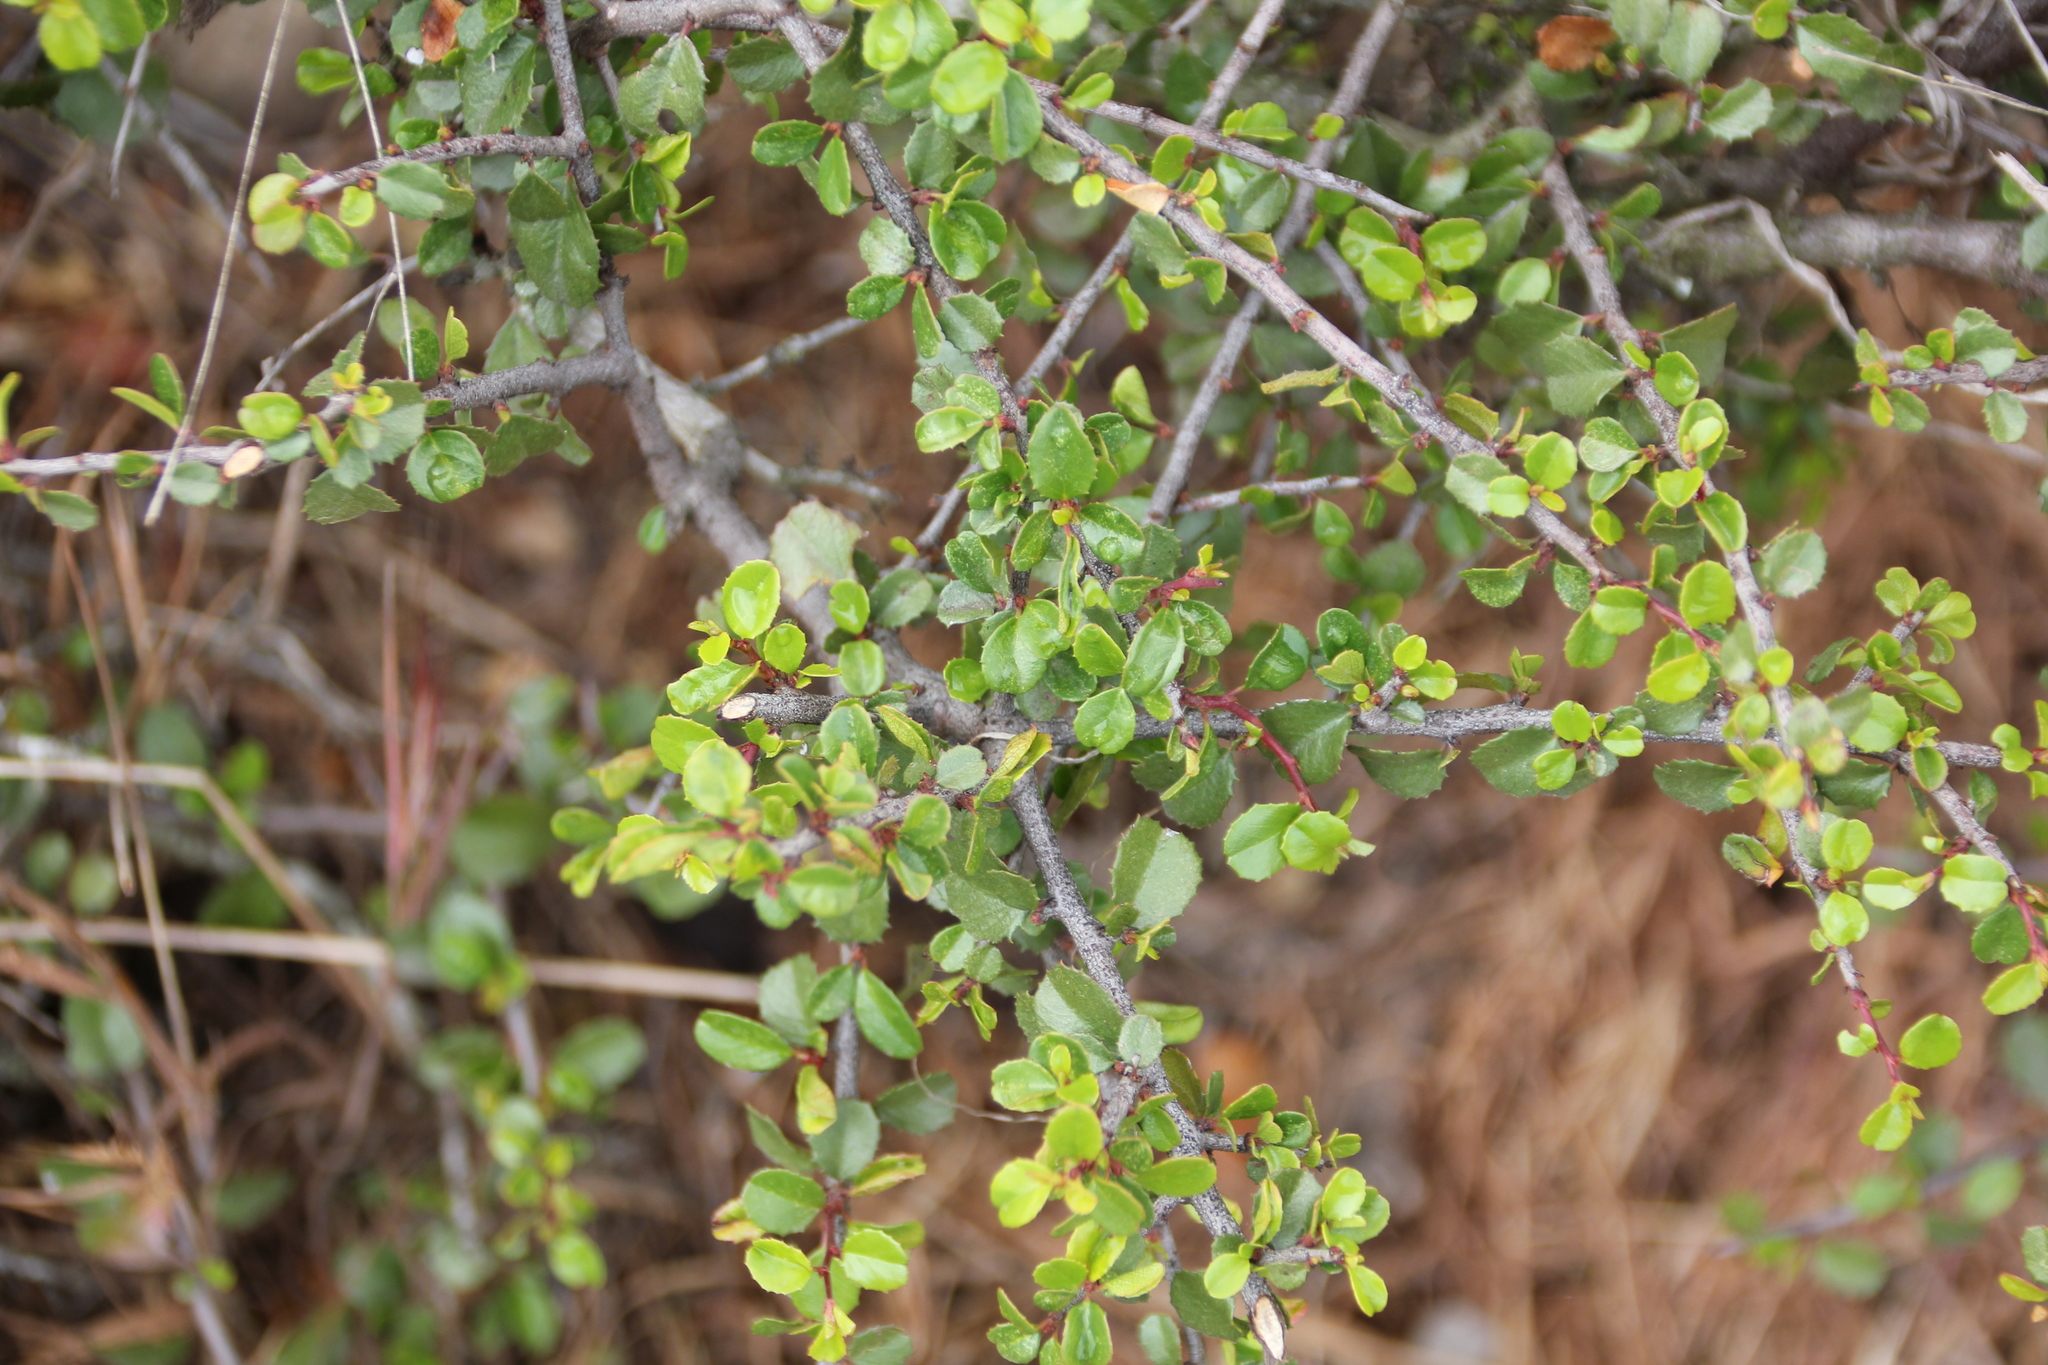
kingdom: Plantae
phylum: Tracheophyta
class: Magnoliopsida
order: Rosales
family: Rhamnaceae
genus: Endotropis
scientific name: Endotropis crocea
